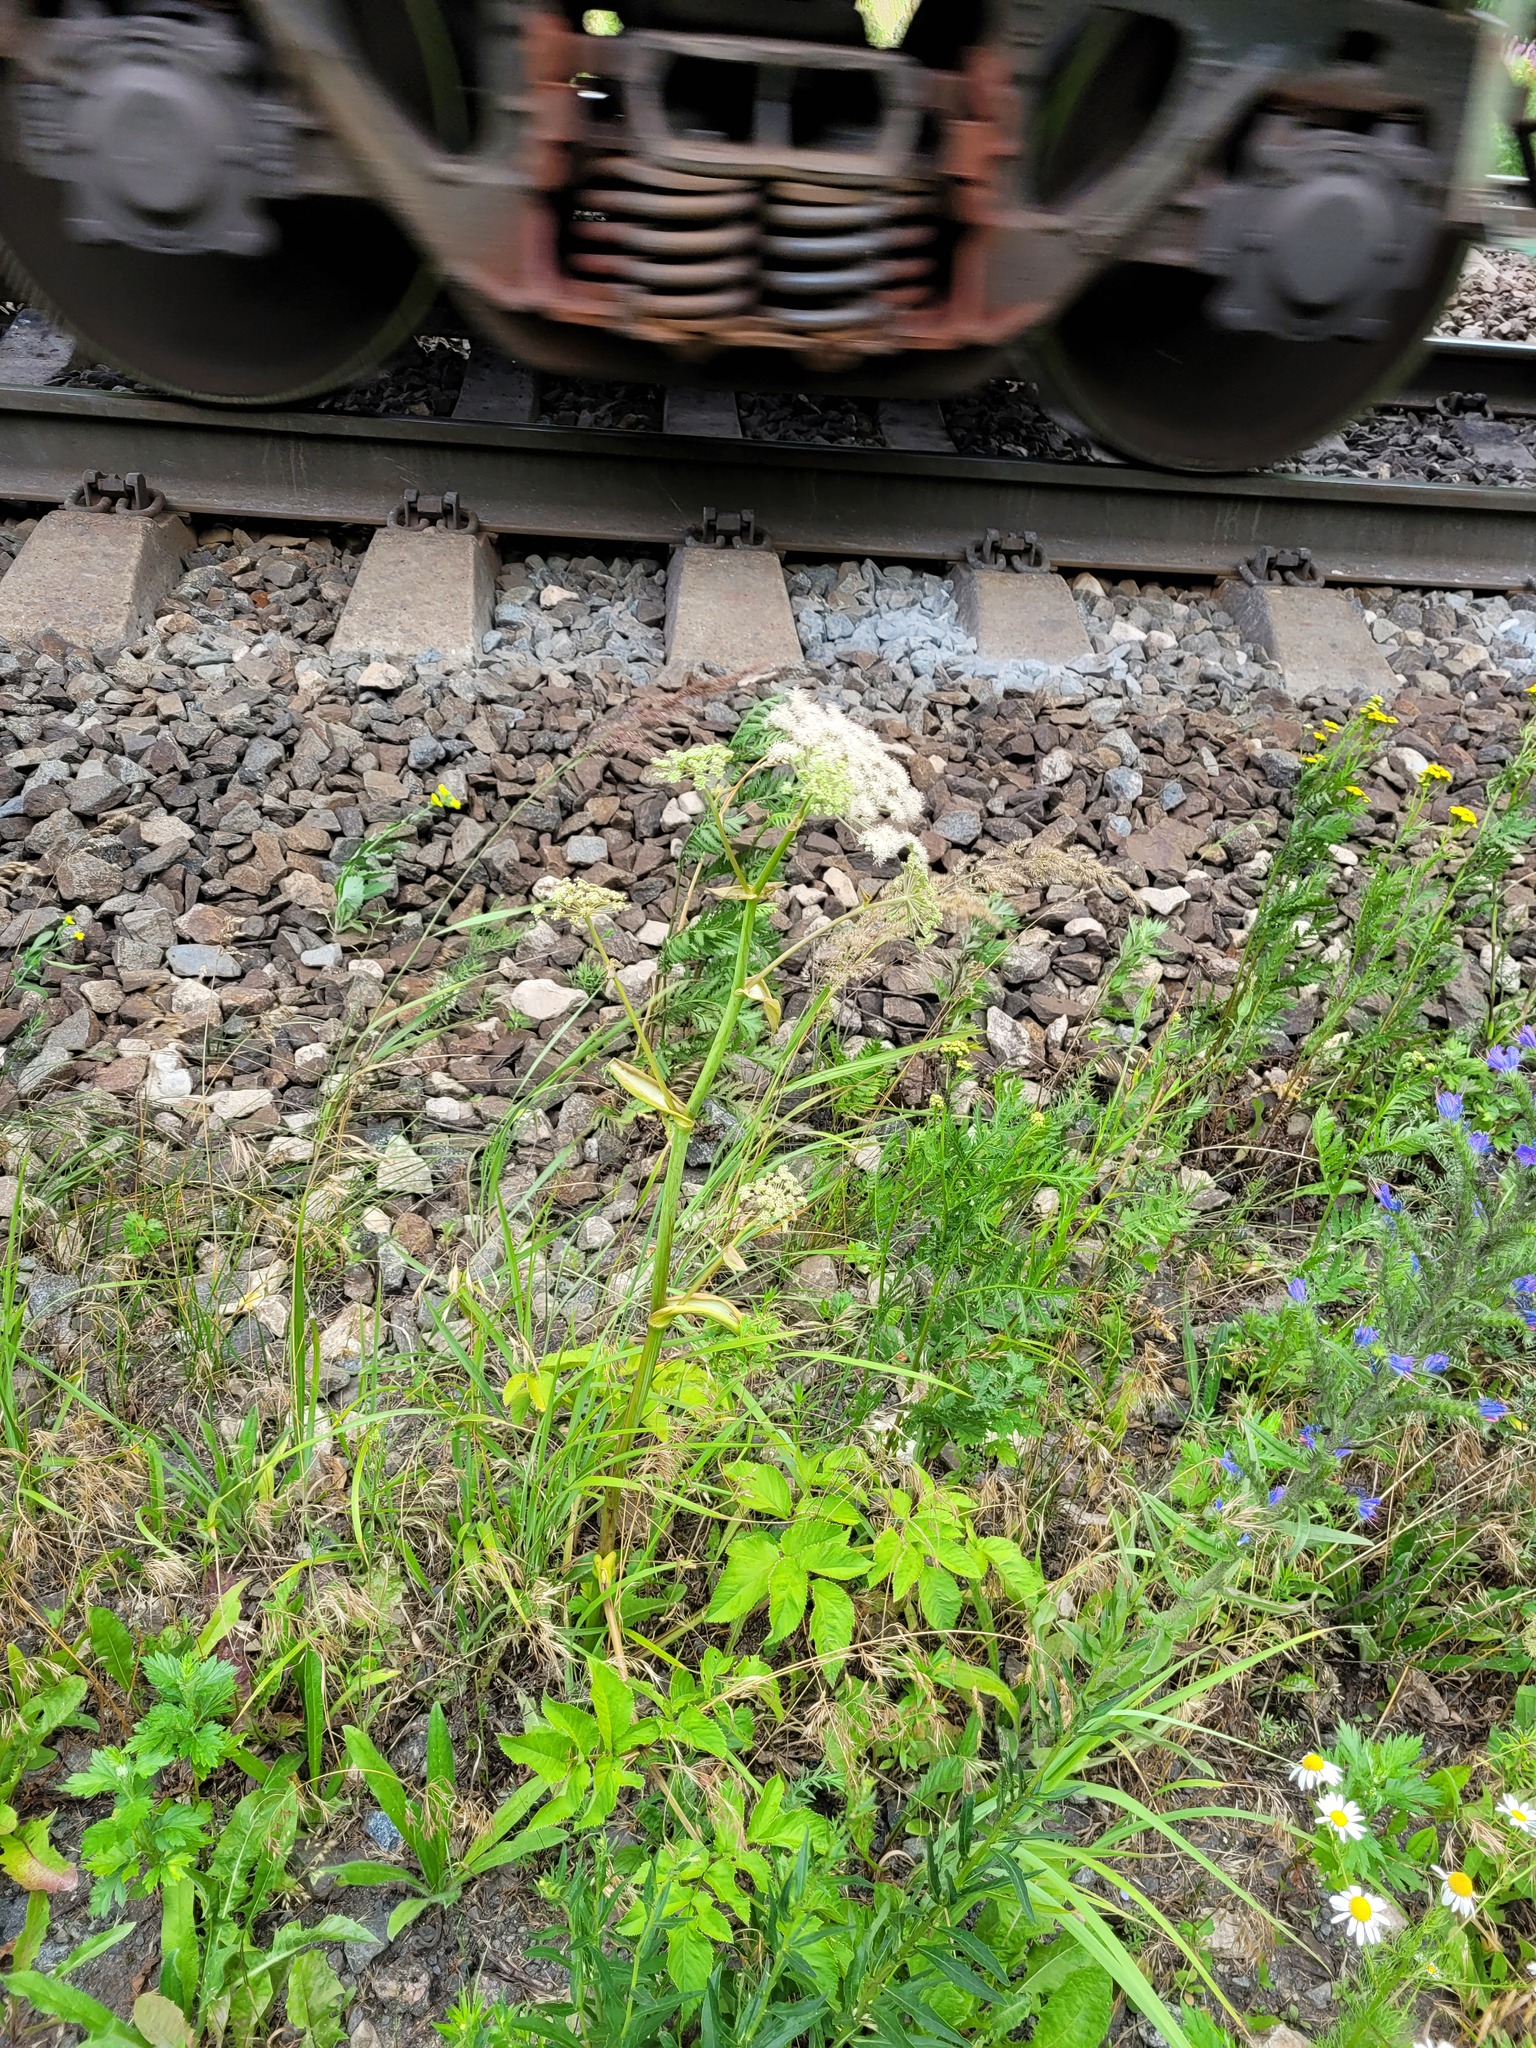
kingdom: Plantae
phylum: Tracheophyta
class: Magnoliopsida
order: Apiales
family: Apiaceae
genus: Angelica
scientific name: Angelica sylvestris
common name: Wild angelica
